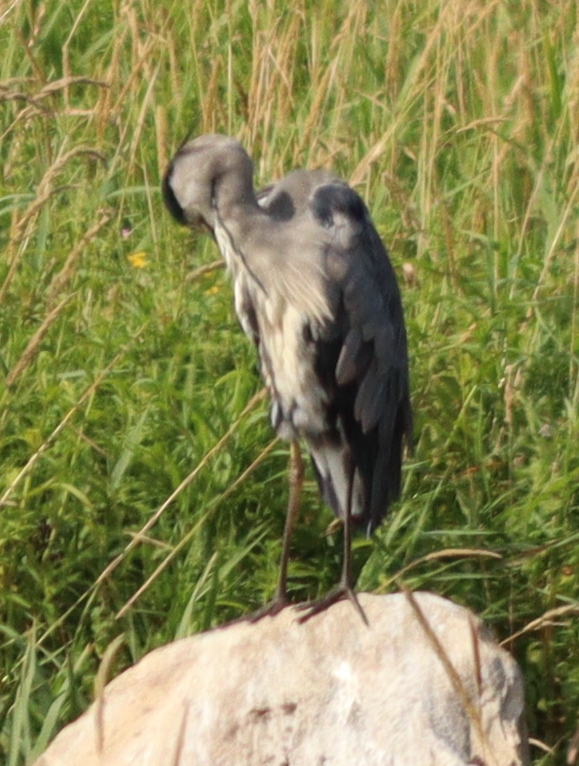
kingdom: Animalia
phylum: Chordata
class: Aves
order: Pelecaniformes
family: Ardeidae
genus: Ardea
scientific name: Ardea cinerea
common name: Grey heron
